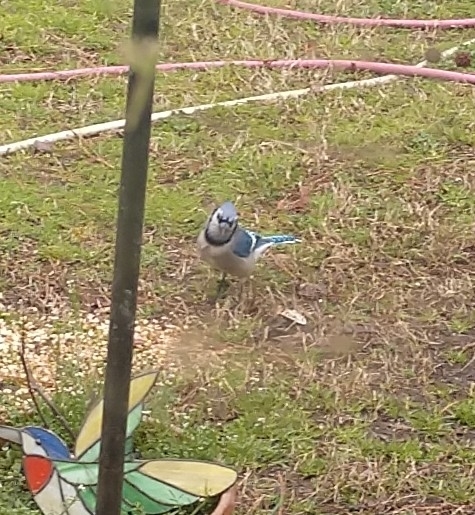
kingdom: Animalia
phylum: Chordata
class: Aves
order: Passeriformes
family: Corvidae
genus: Cyanocitta
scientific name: Cyanocitta cristata
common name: Blue jay
